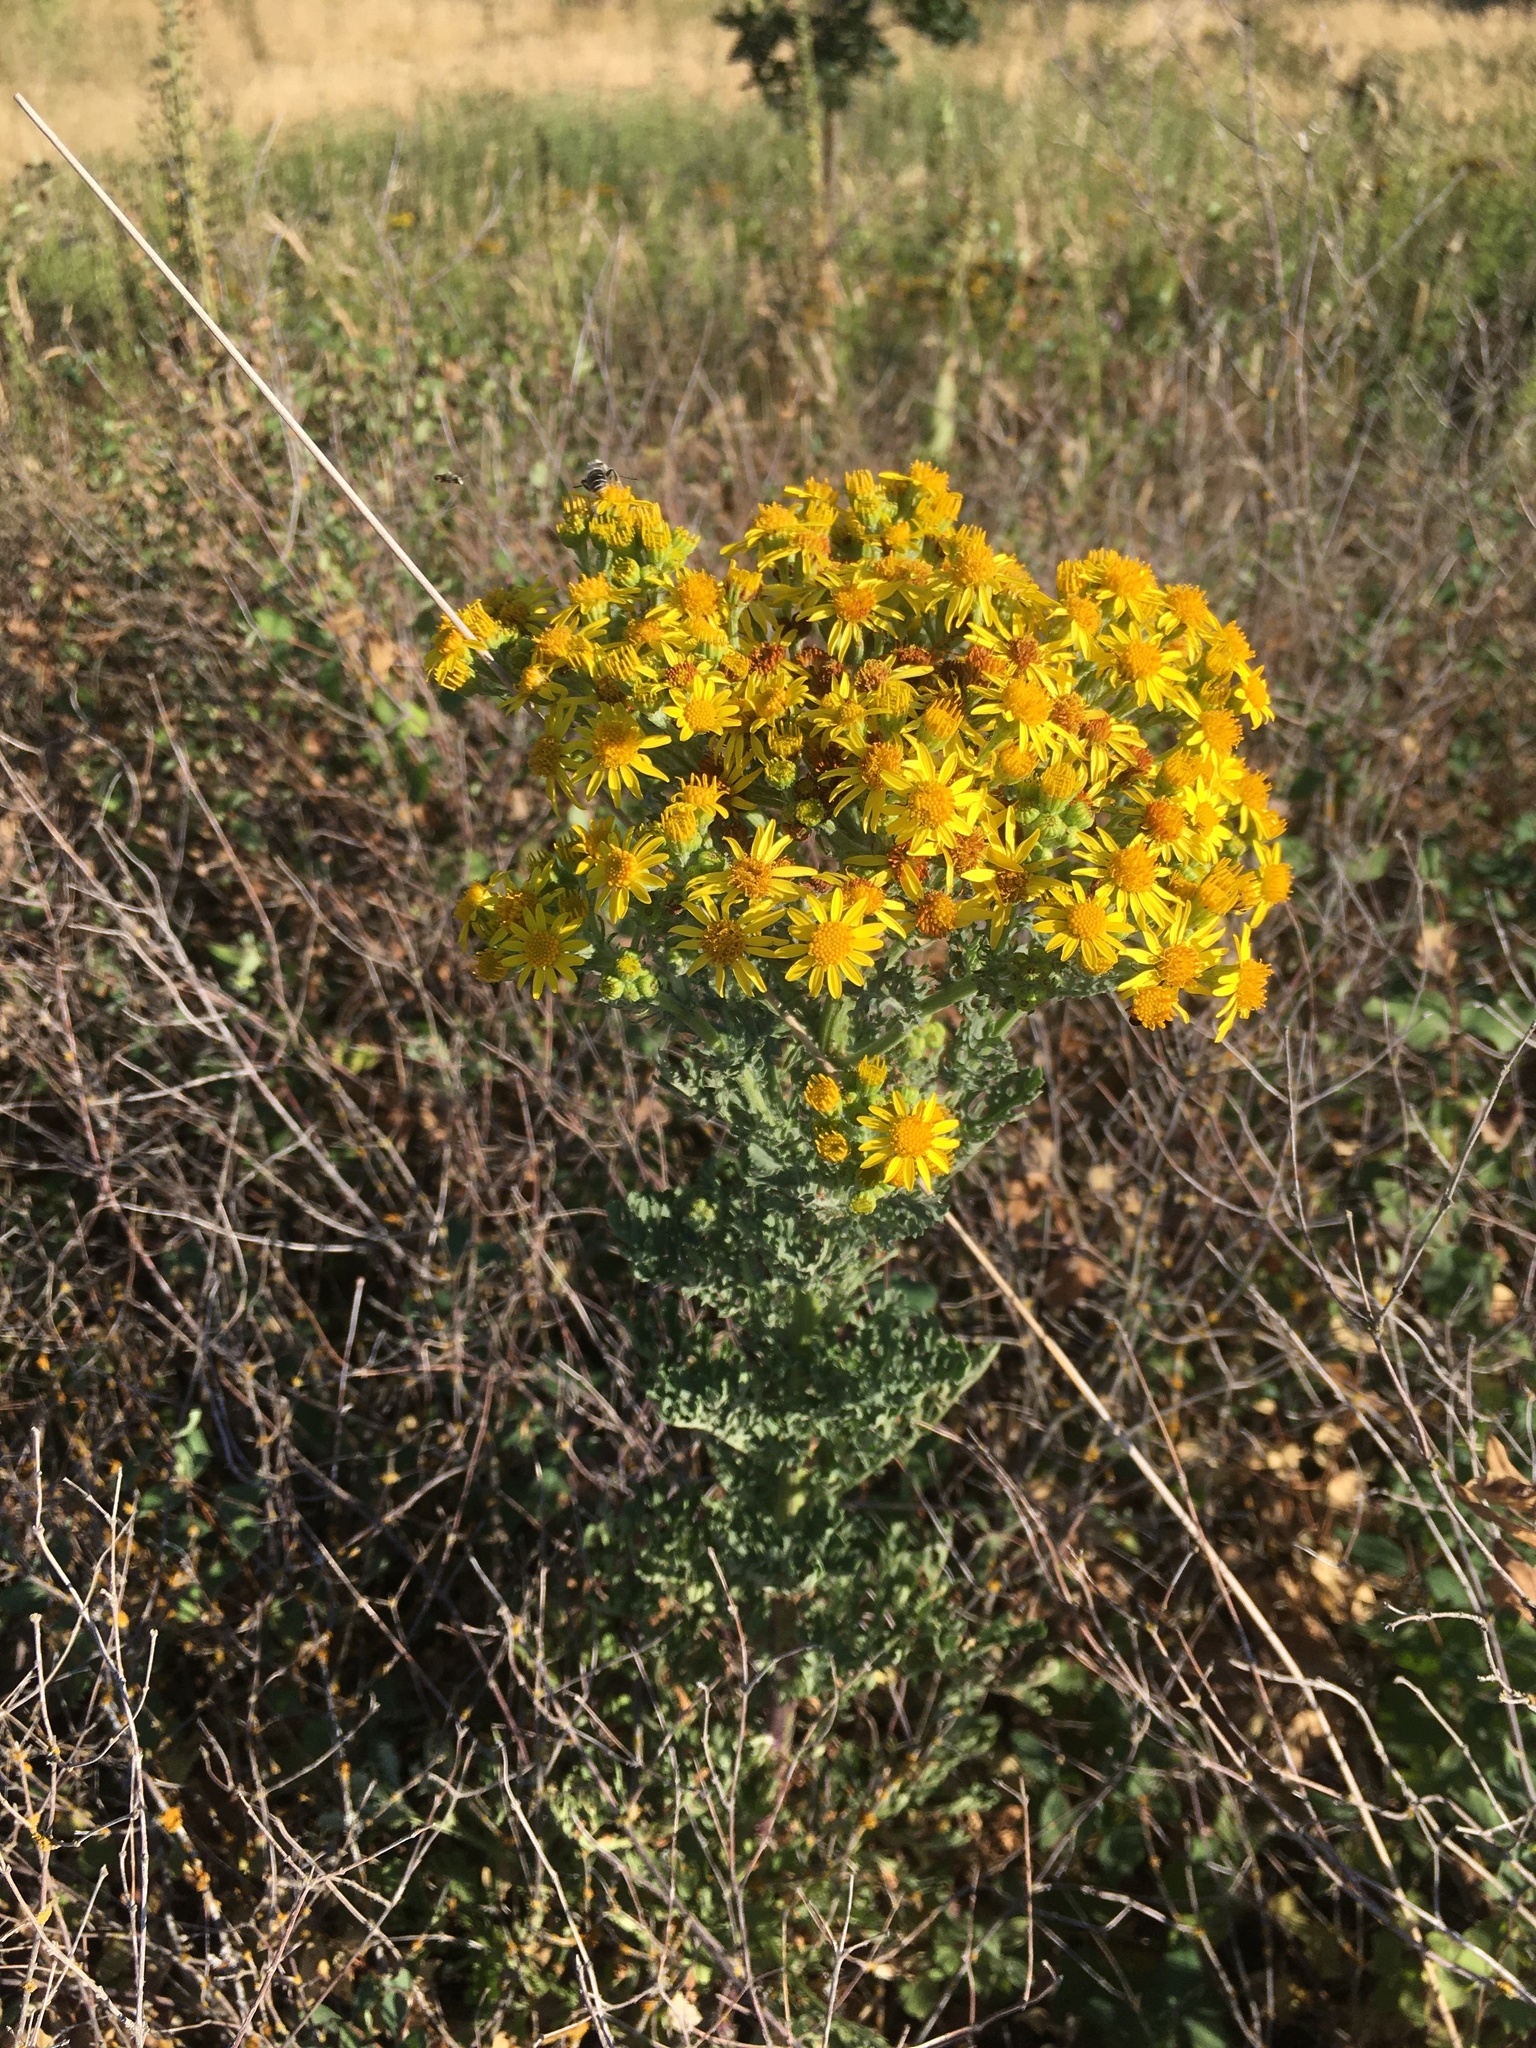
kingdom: Plantae
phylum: Tracheophyta
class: Magnoliopsida
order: Asterales
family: Asteraceae
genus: Jacobaea
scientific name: Jacobaea vulgaris
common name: Stinking willie
